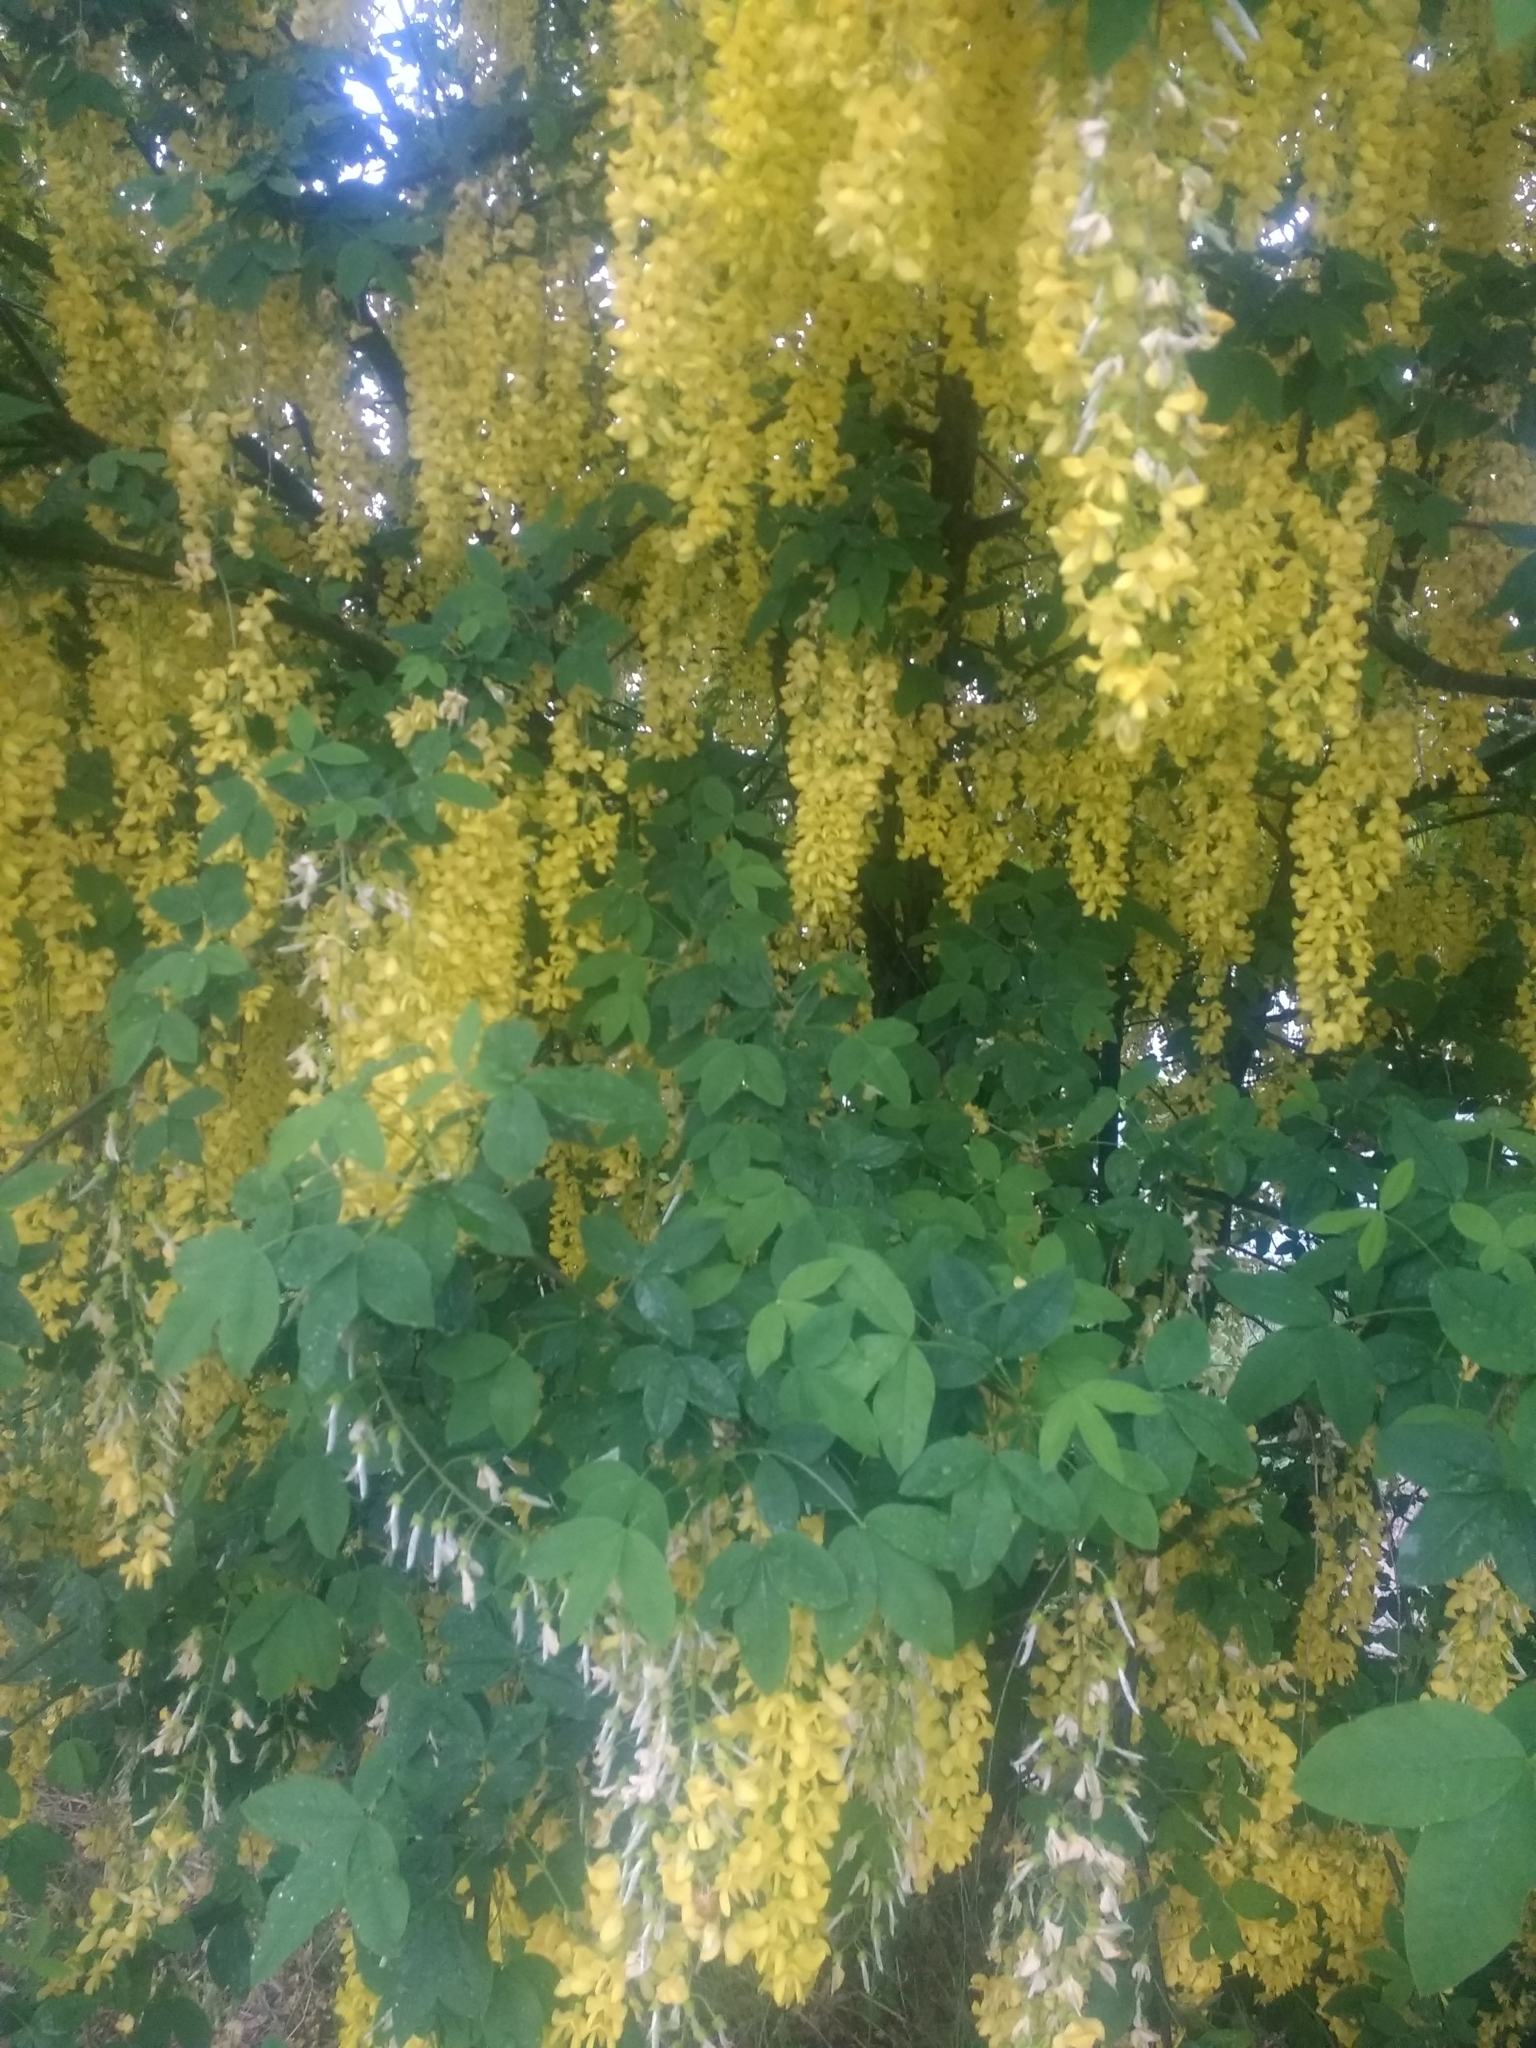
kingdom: Plantae
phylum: Tracheophyta
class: Magnoliopsida
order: Fabales
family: Fabaceae
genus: Laburnum
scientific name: Laburnum anagyroides
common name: Laburnum
